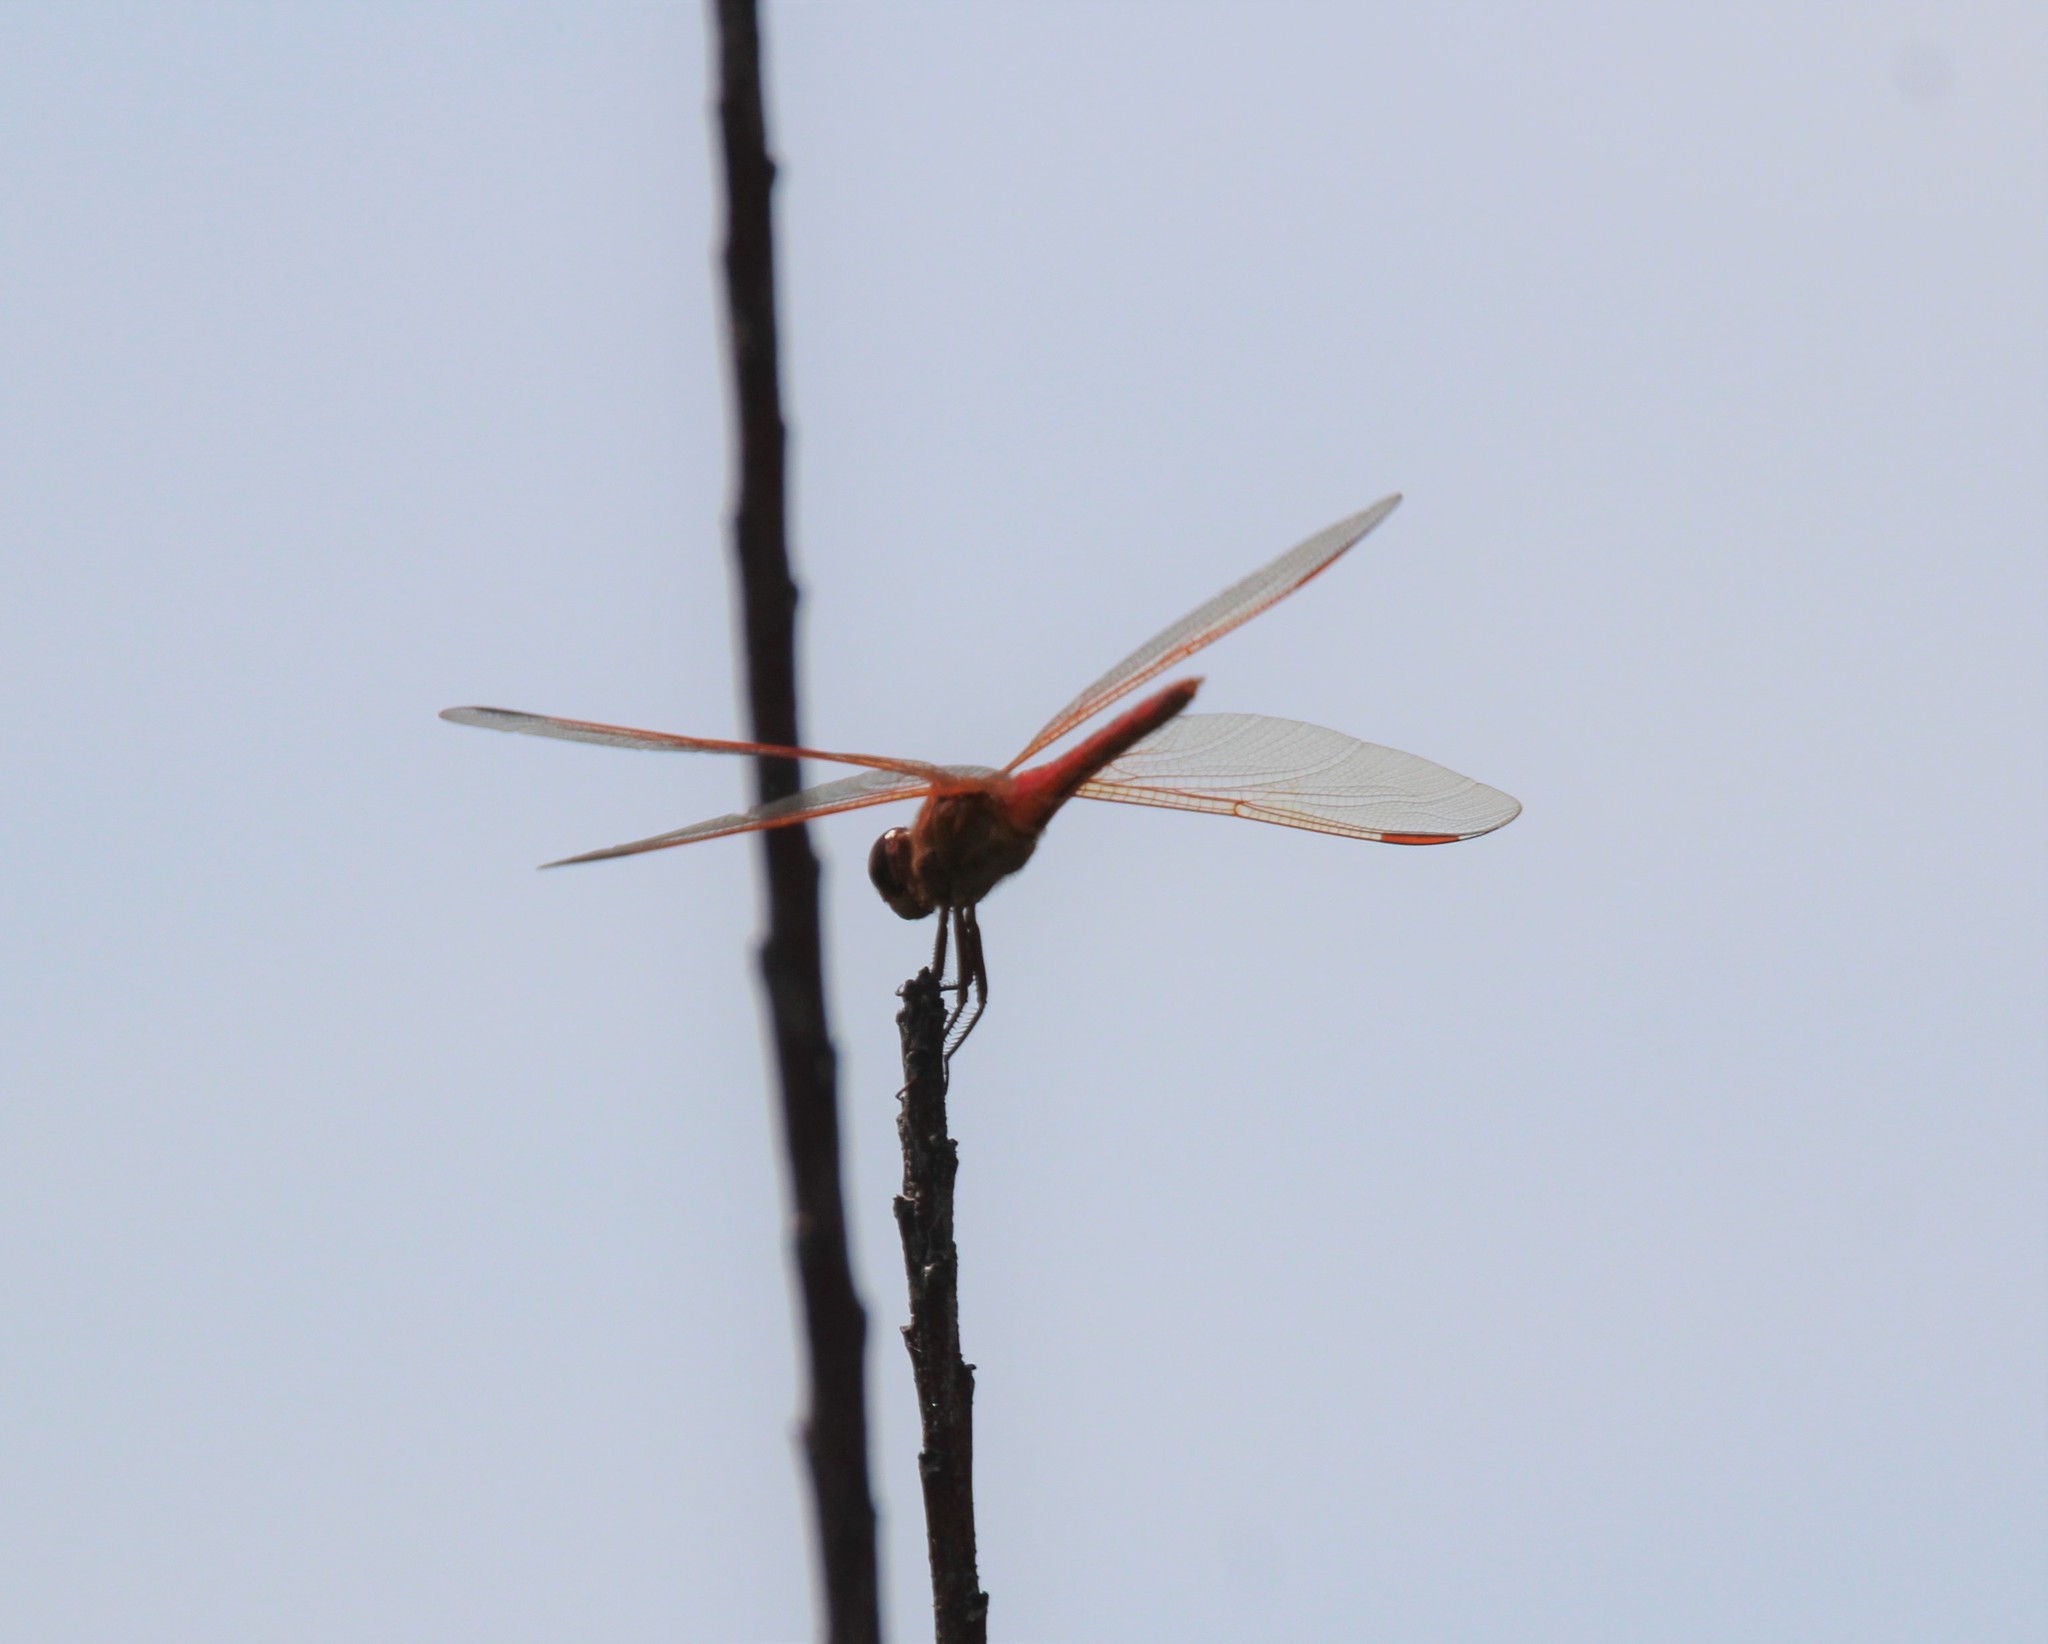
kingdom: Animalia
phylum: Arthropoda
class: Insecta
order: Odonata
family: Libellulidae
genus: Libellula
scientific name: Libellula needhami
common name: Needham's skimmer
